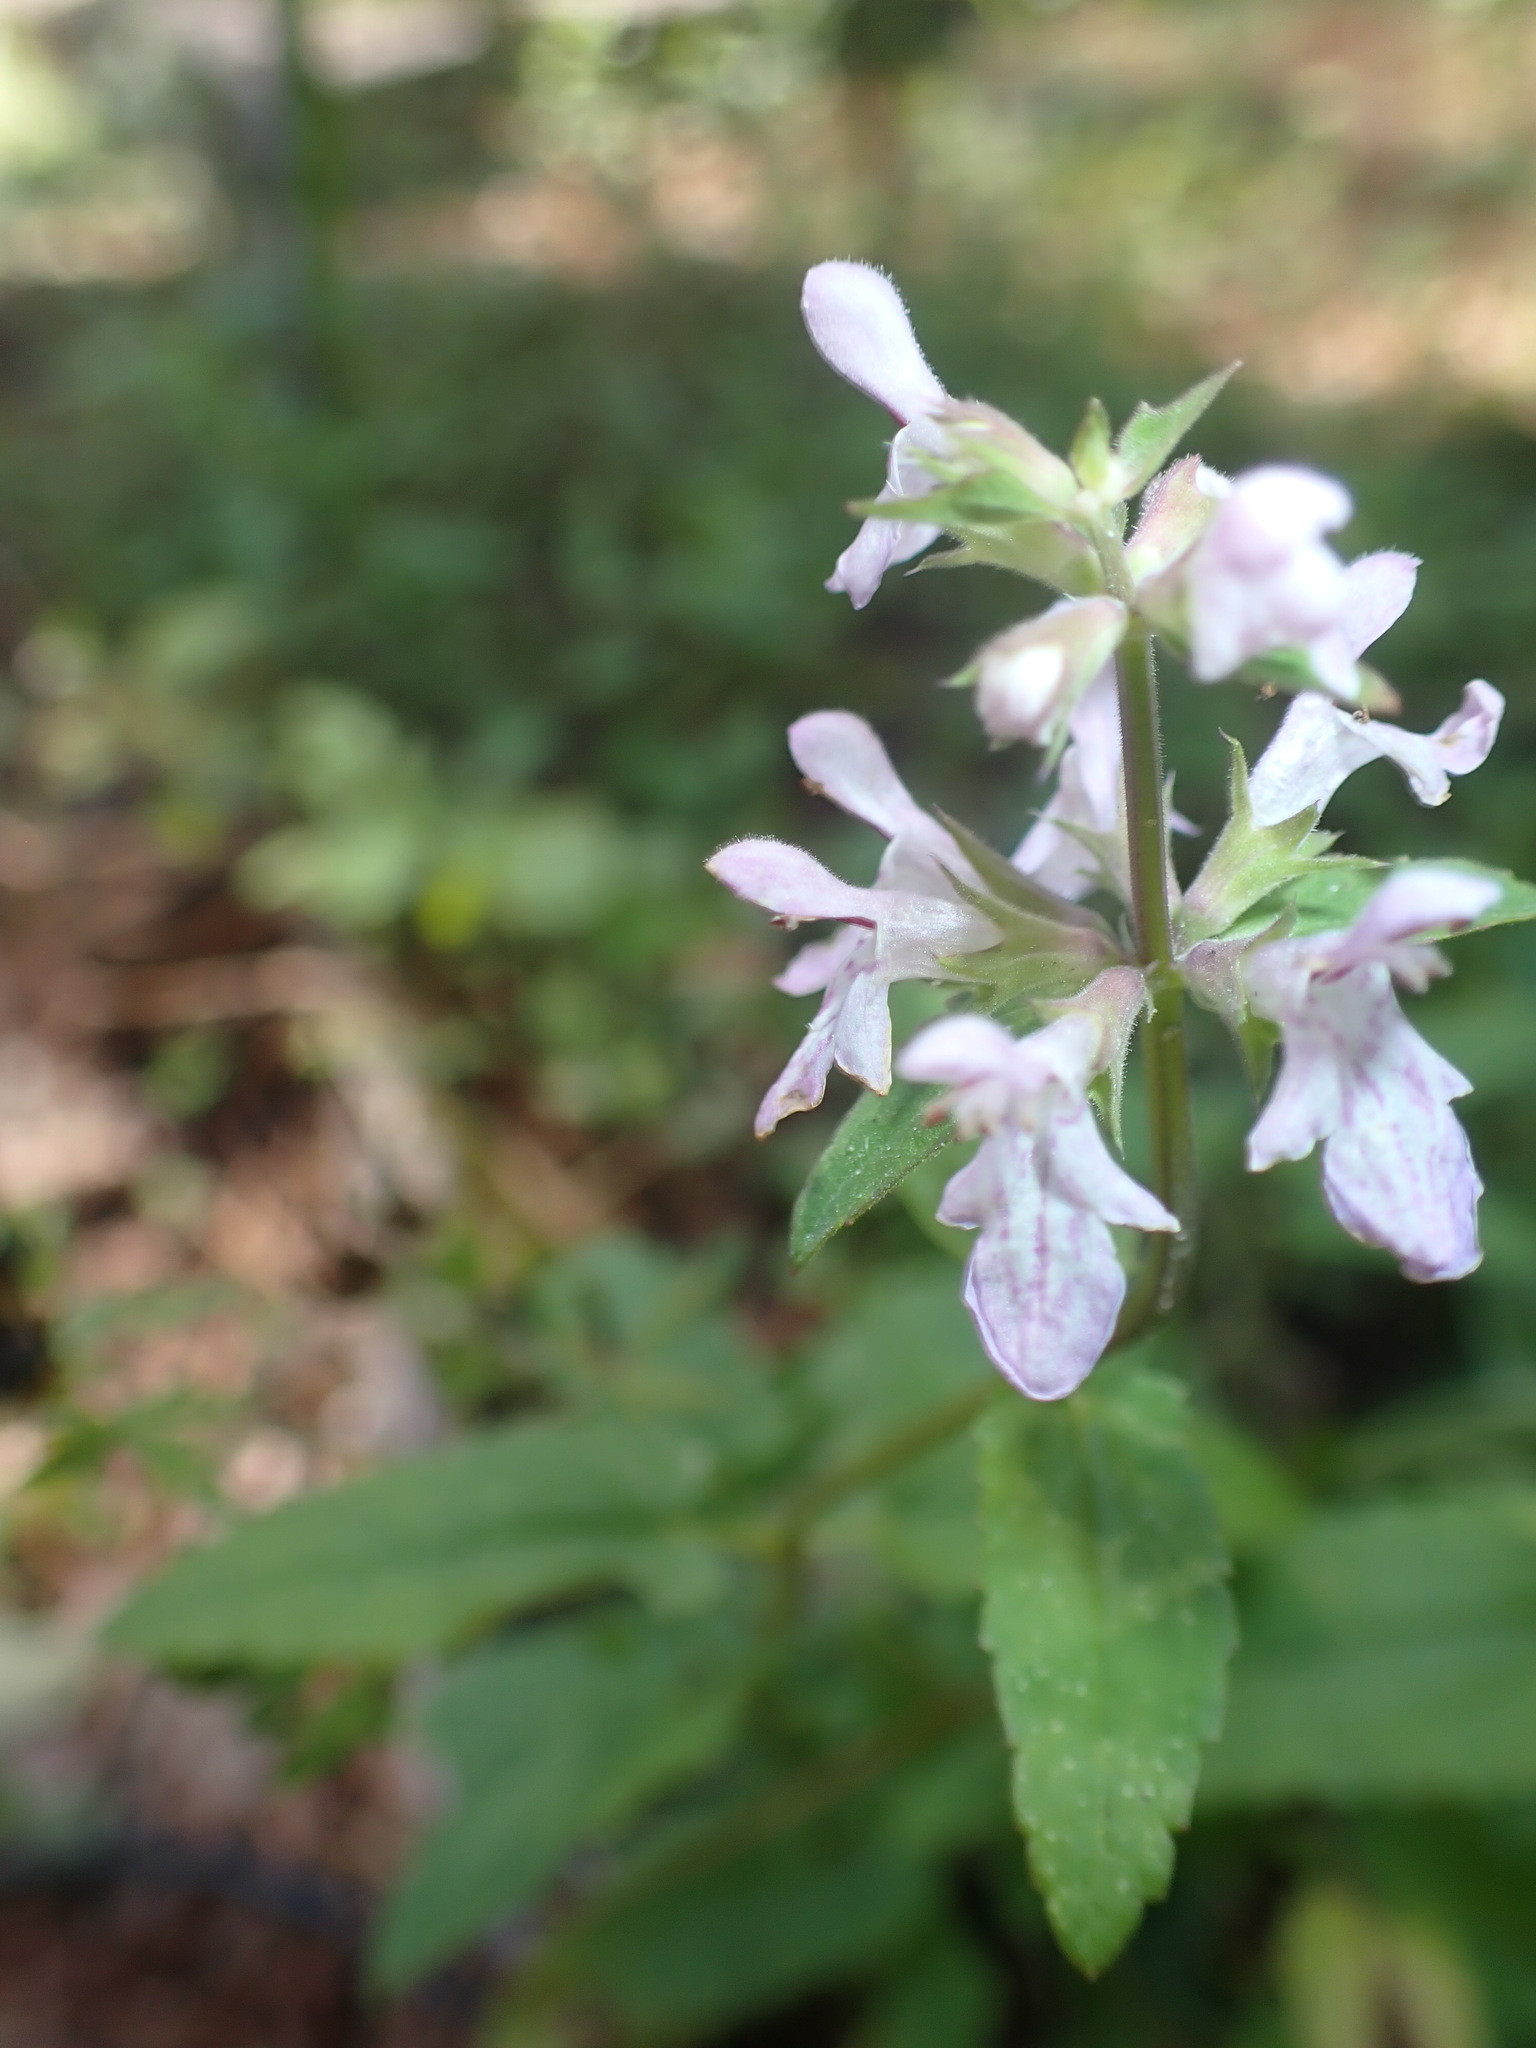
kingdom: Plantae
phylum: Tracheophyta
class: Magnoliopsida
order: Lamiales
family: Lamiaceae
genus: Stachys
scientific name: Stachys floridana
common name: Florida betony
